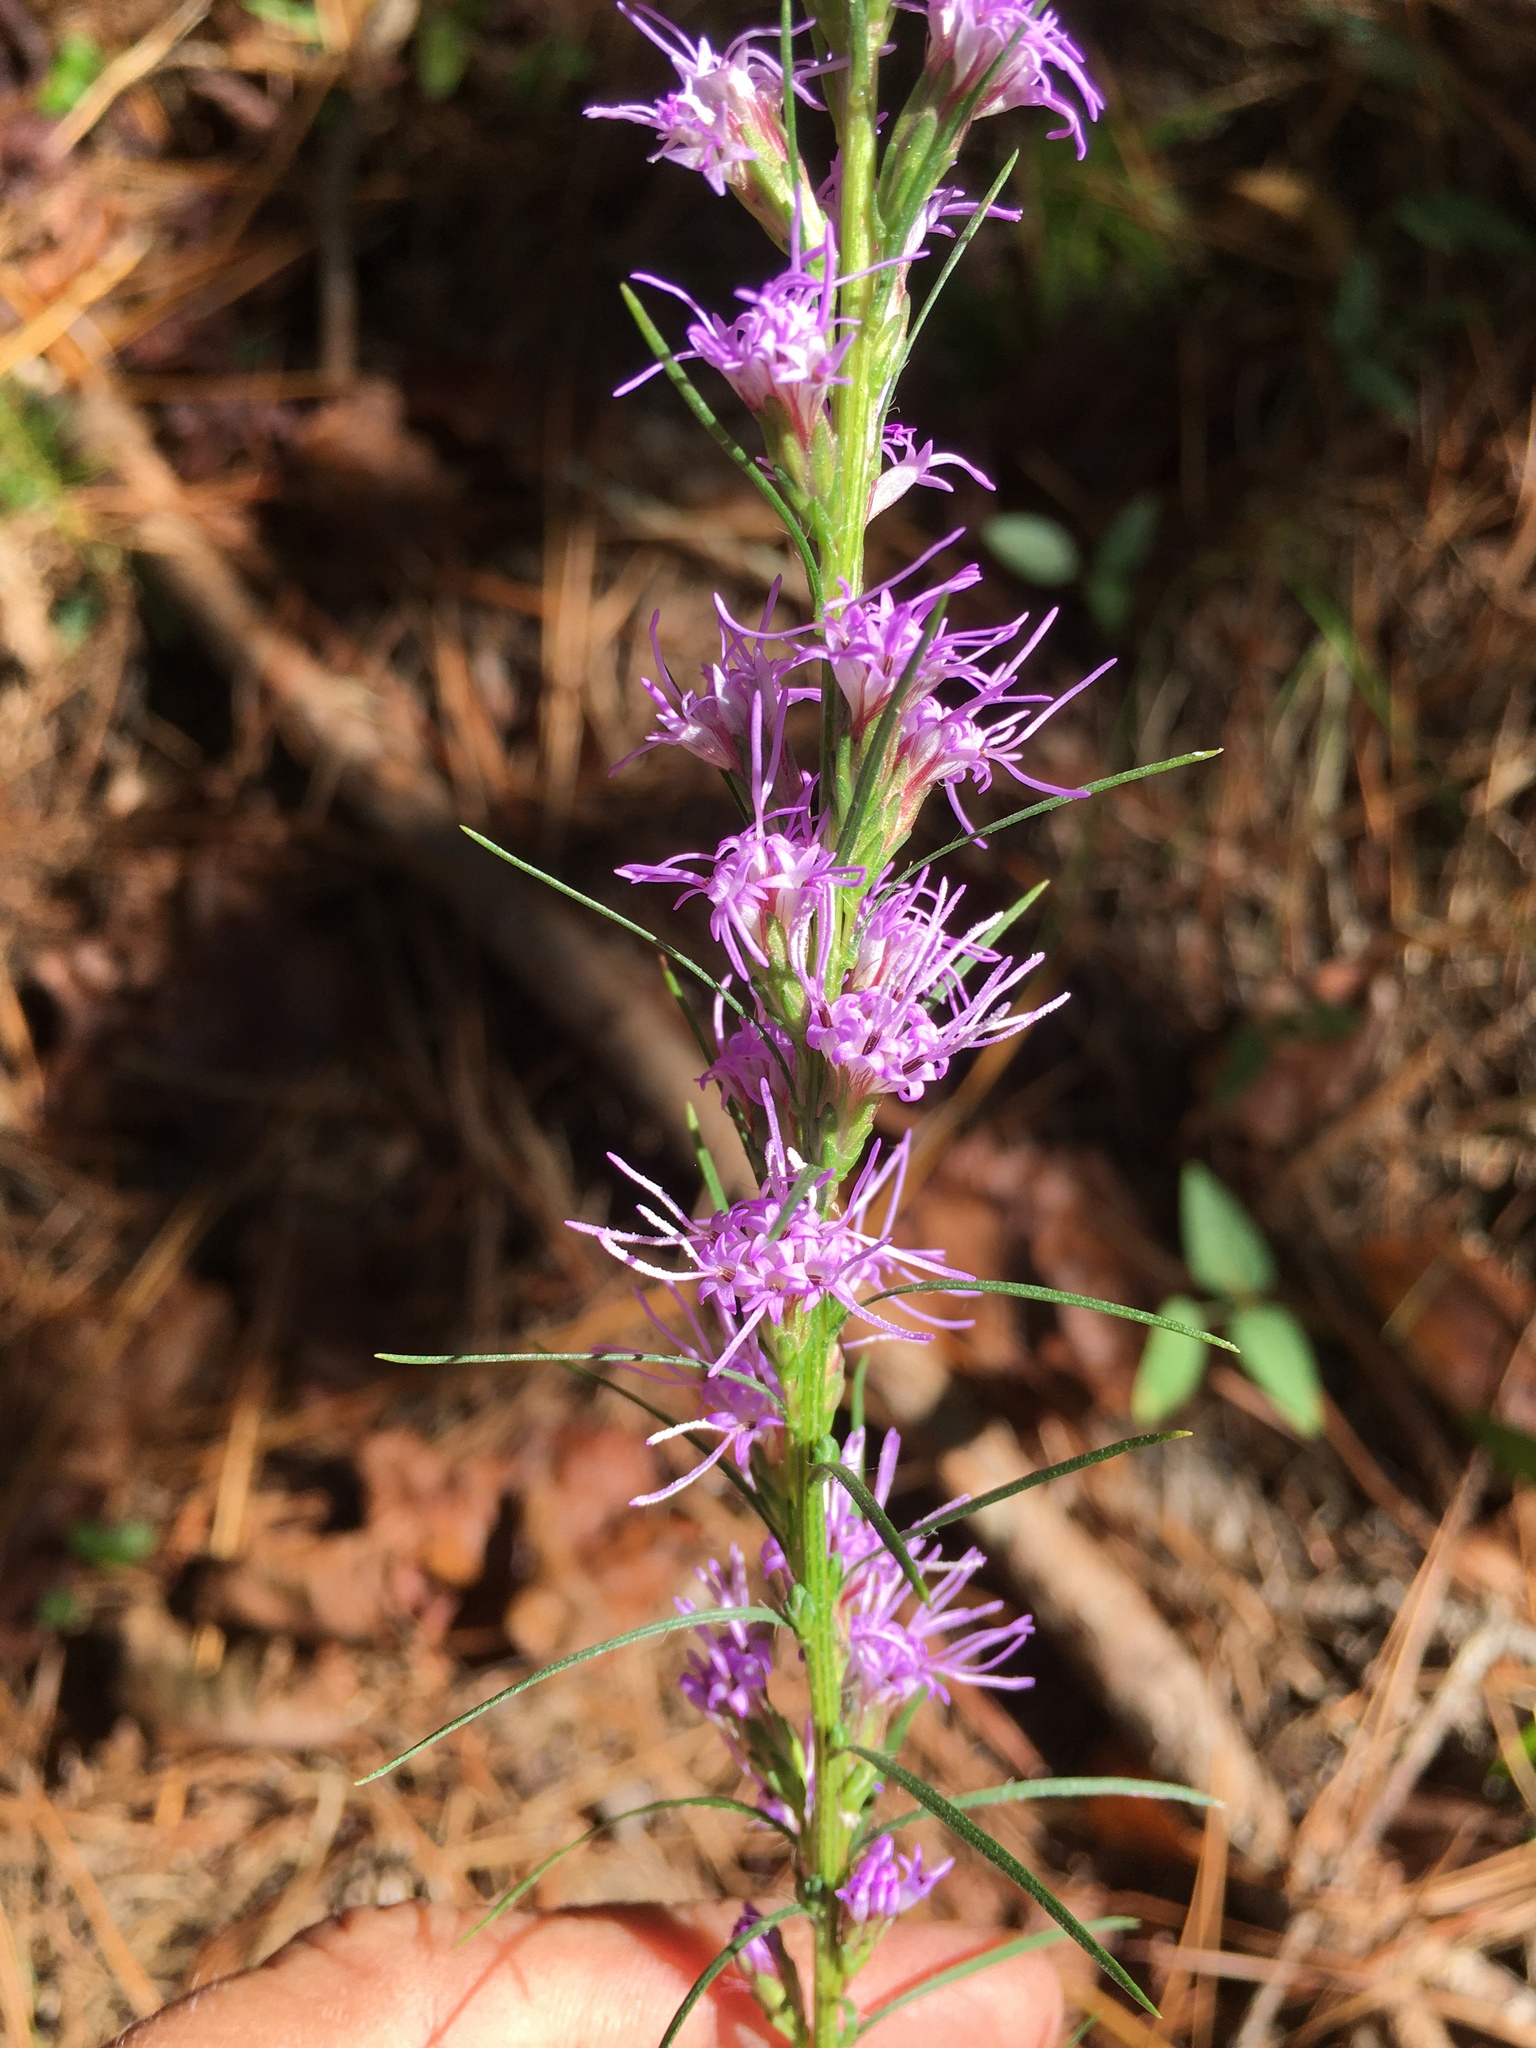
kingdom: Plantae
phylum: Tracheophyta
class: Magnoliopsida
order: Asterales
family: Asteraceae
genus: Liatris
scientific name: Liatris pilosa
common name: Grass-leaf gayfeather
